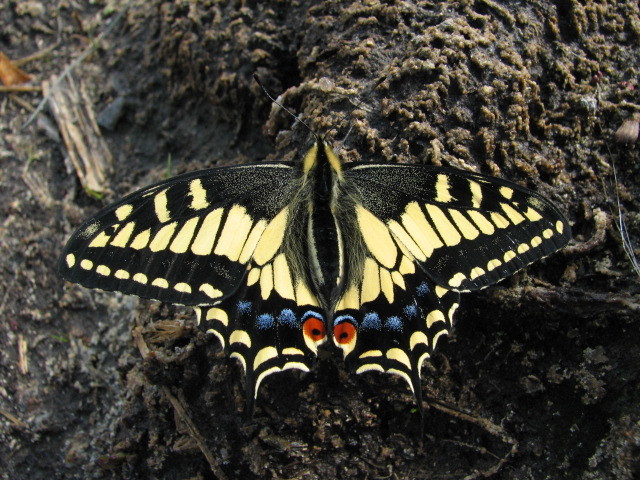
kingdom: Animalia
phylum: Arthropoda
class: Insecta
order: Lepidoptera
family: Papilionidae
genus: Papilio
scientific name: Papilio zelicaon
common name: Anise swallowtail
